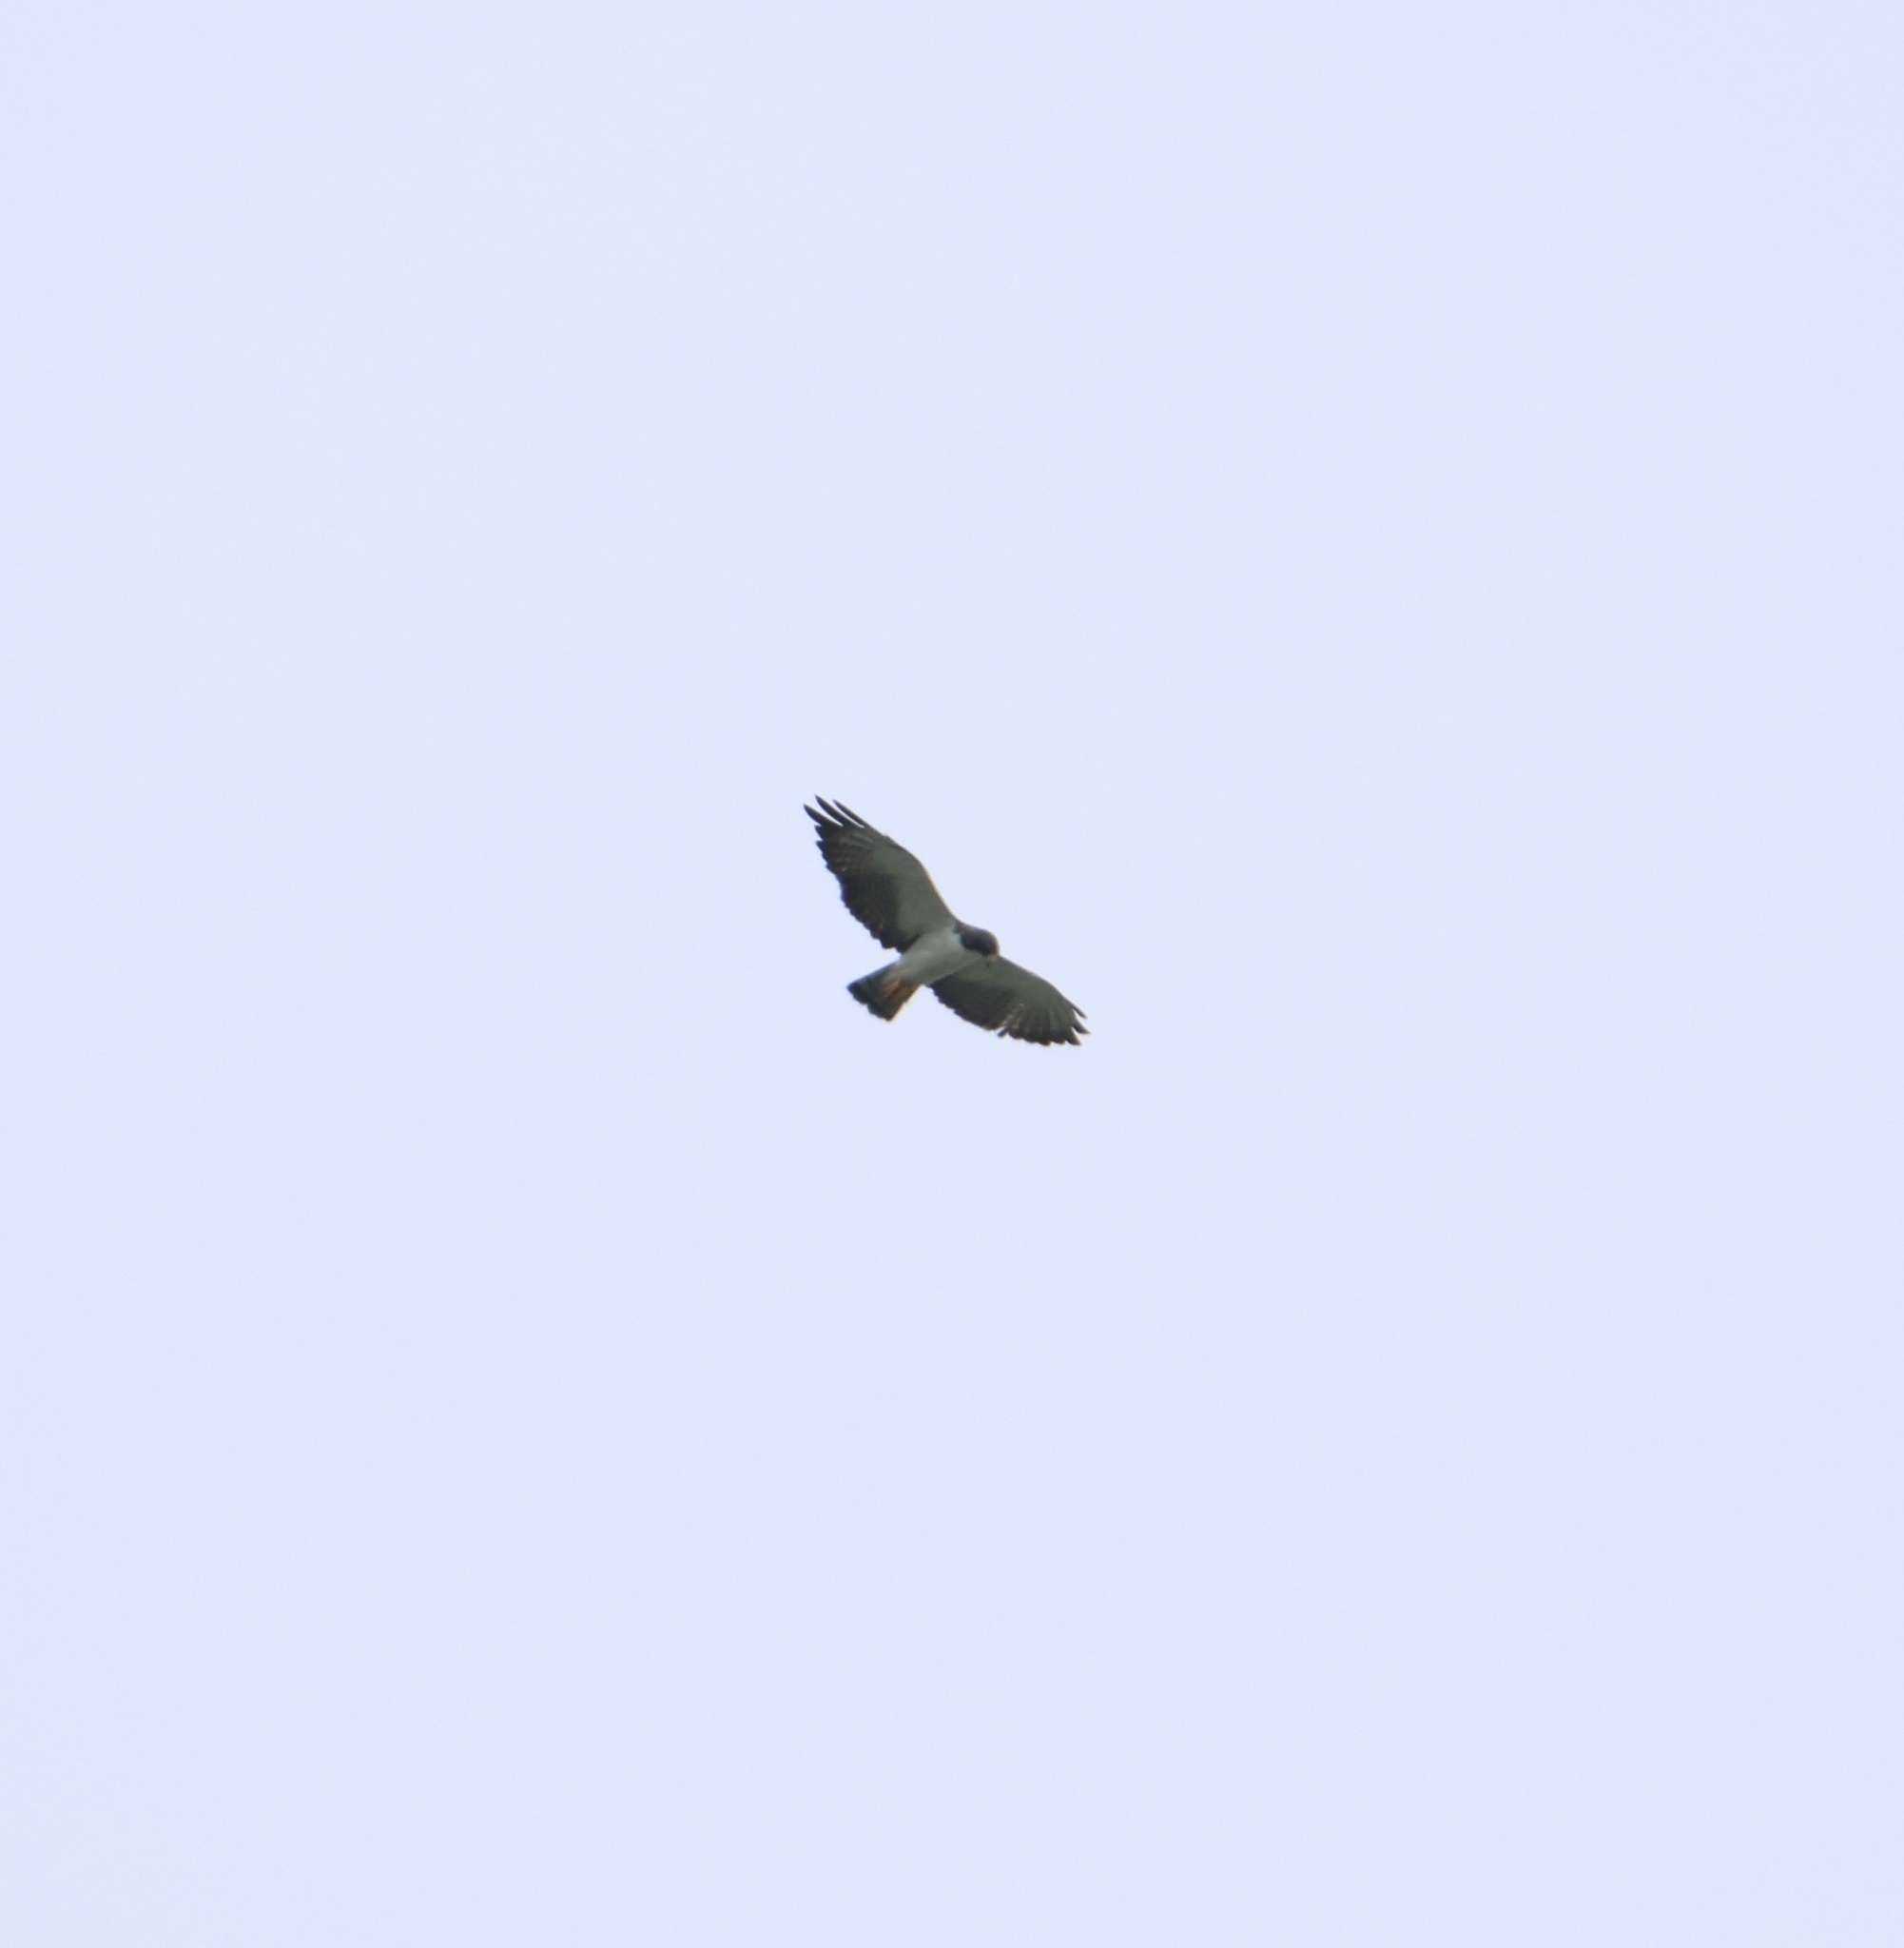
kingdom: Animalia
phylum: Chordata
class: Aves
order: Accipitriformes
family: Accipitridae
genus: Buteo
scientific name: Buteo brachyurus
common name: Short-tailed hawk
